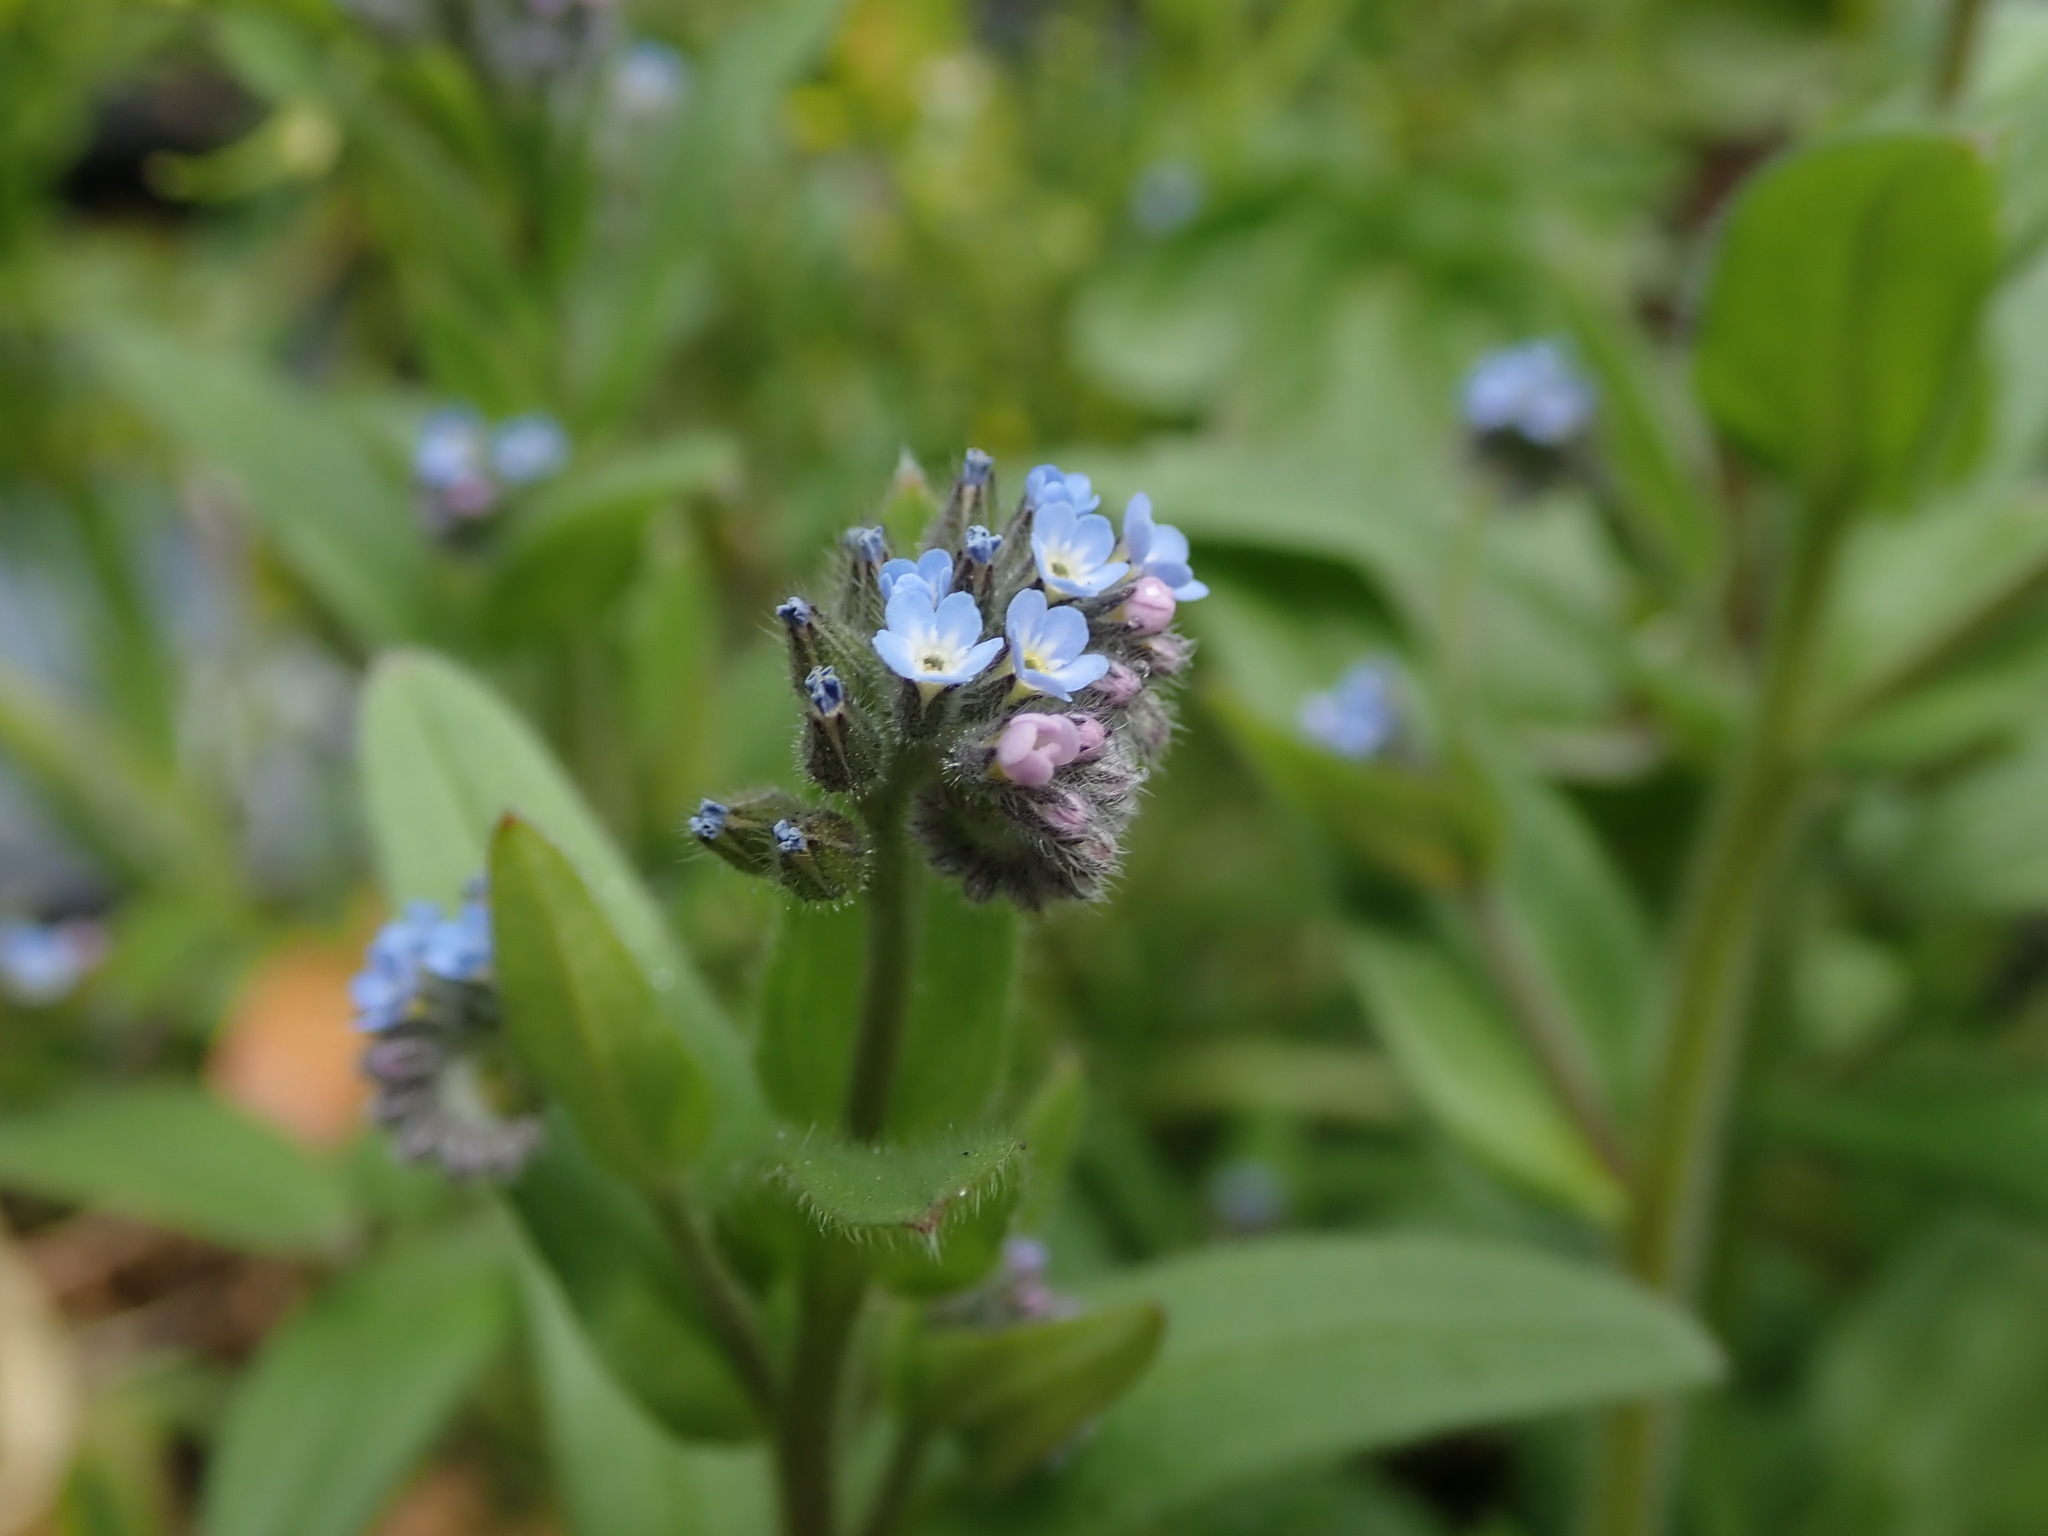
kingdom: Plantae
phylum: Tracheophyta
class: Magnoliopsida
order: Boraginales
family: Boraginaceae
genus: Myosotis
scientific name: Myosotis arvensis
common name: Field forget-me-not
